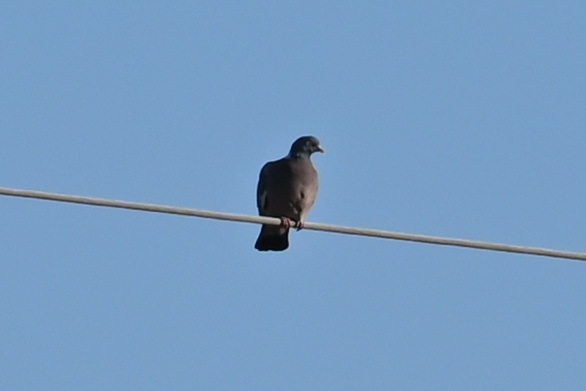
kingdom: Animalia
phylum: Chordata
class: Aves
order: Columbiformes
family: Columbidae
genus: Columba
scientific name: Columba palumbus
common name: Common wood pigeon
